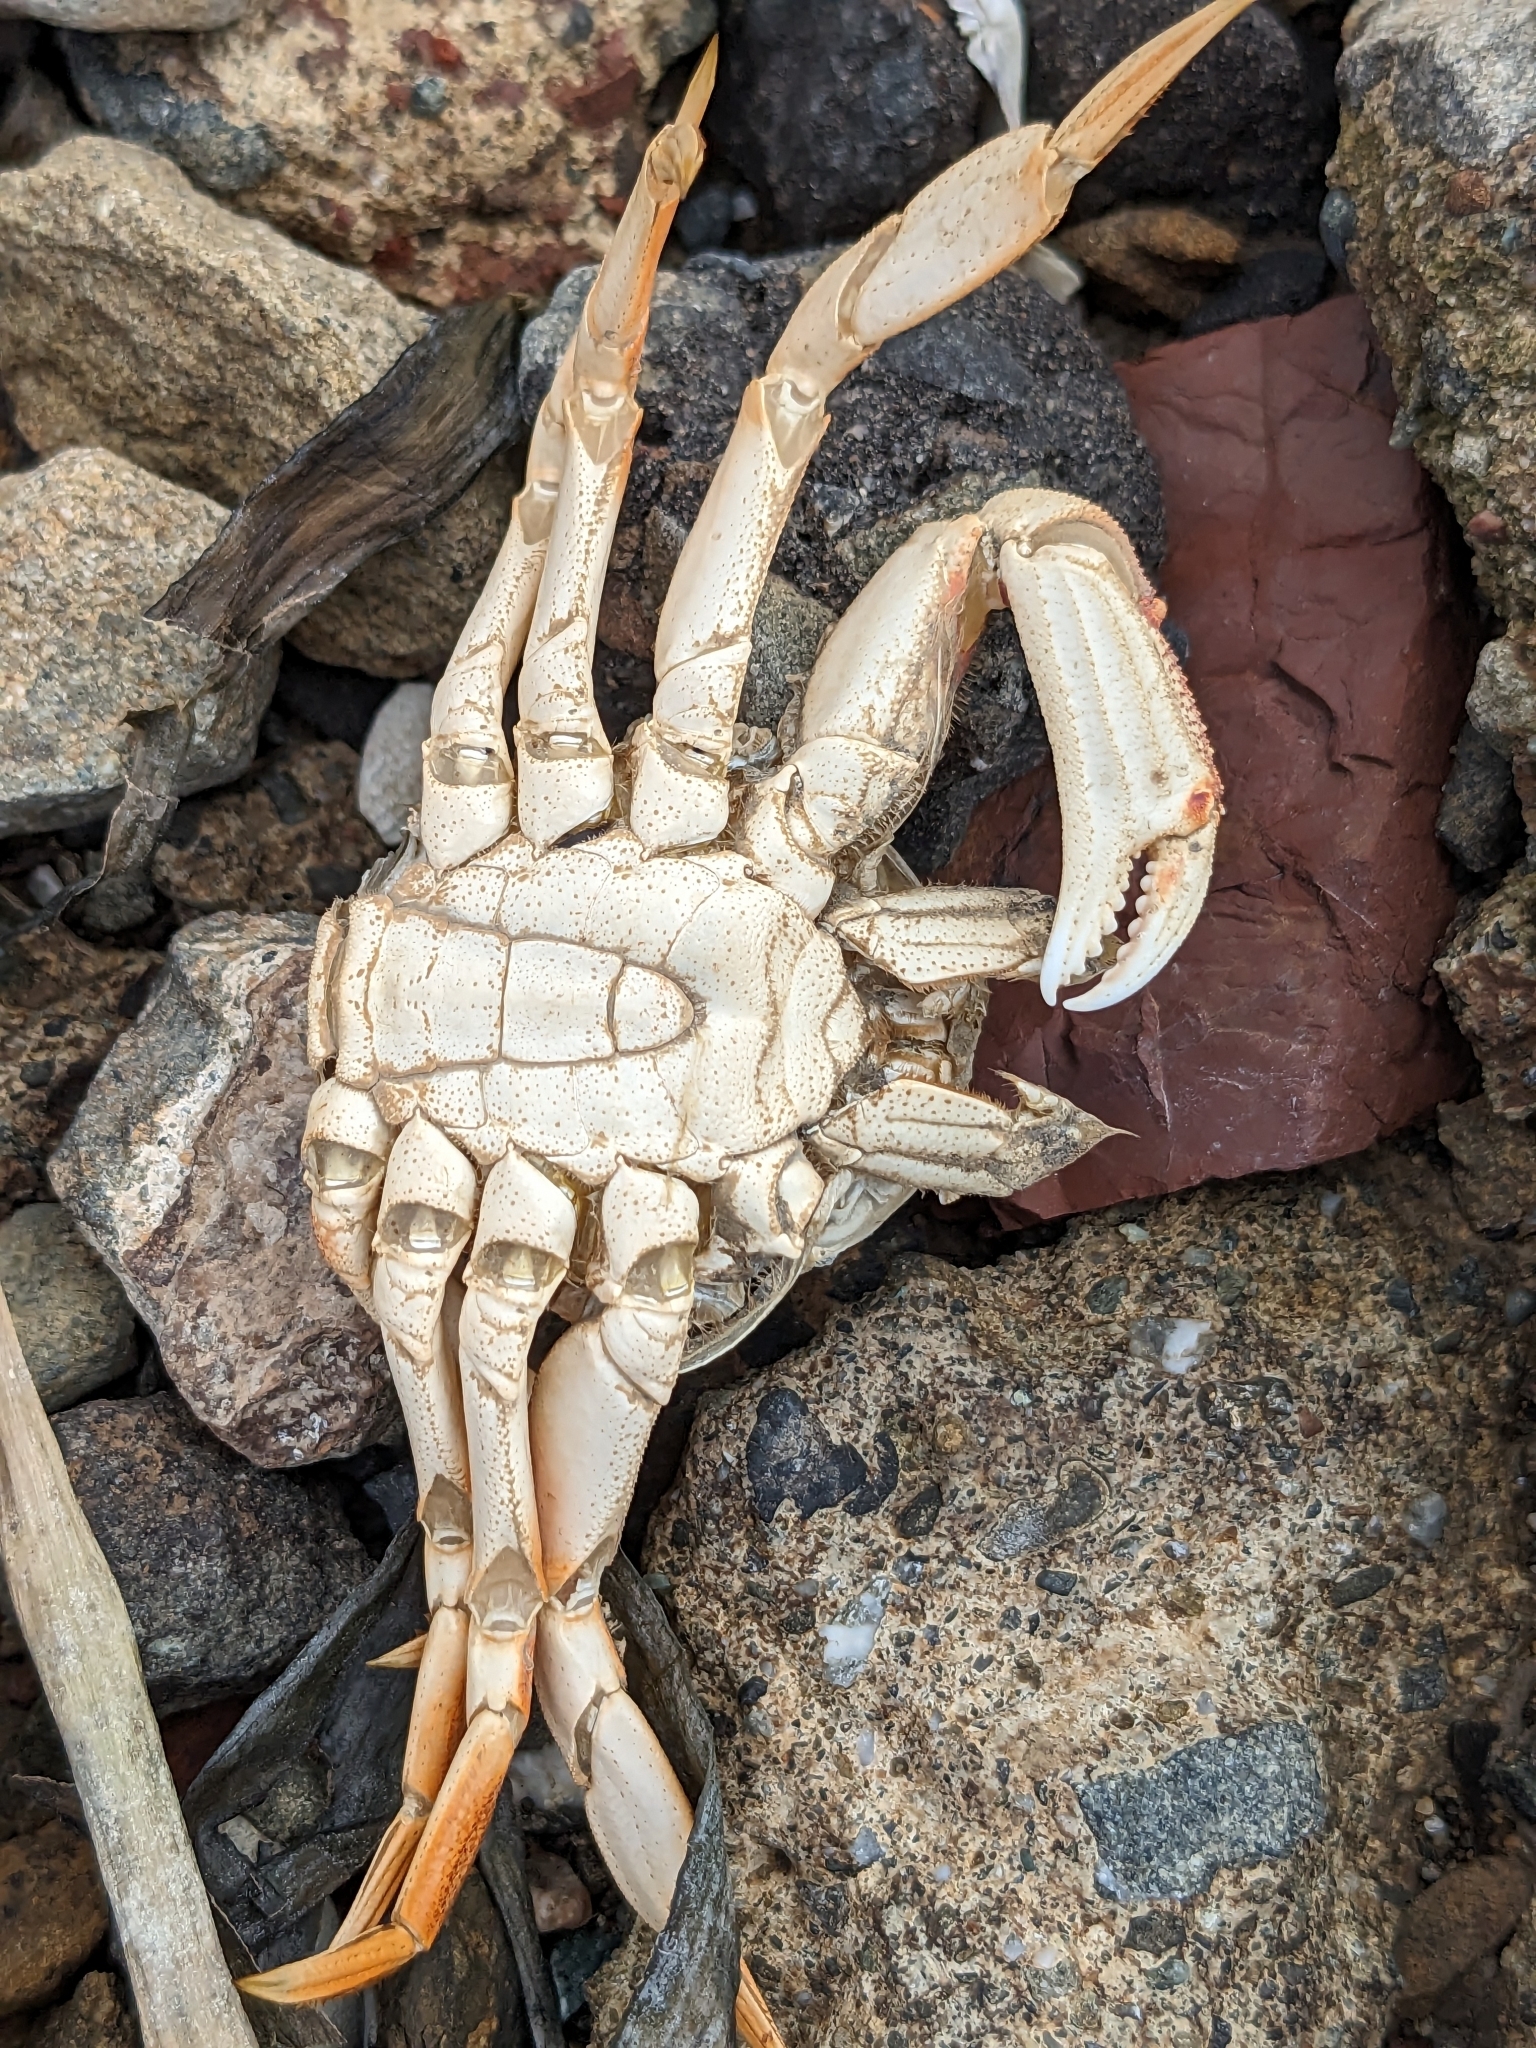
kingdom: Animalia
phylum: Arthropoda
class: Malacostraca
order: Decapoda
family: Cancridae
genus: Metacarcinus
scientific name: Metacarcinus magister
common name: Californian crab
